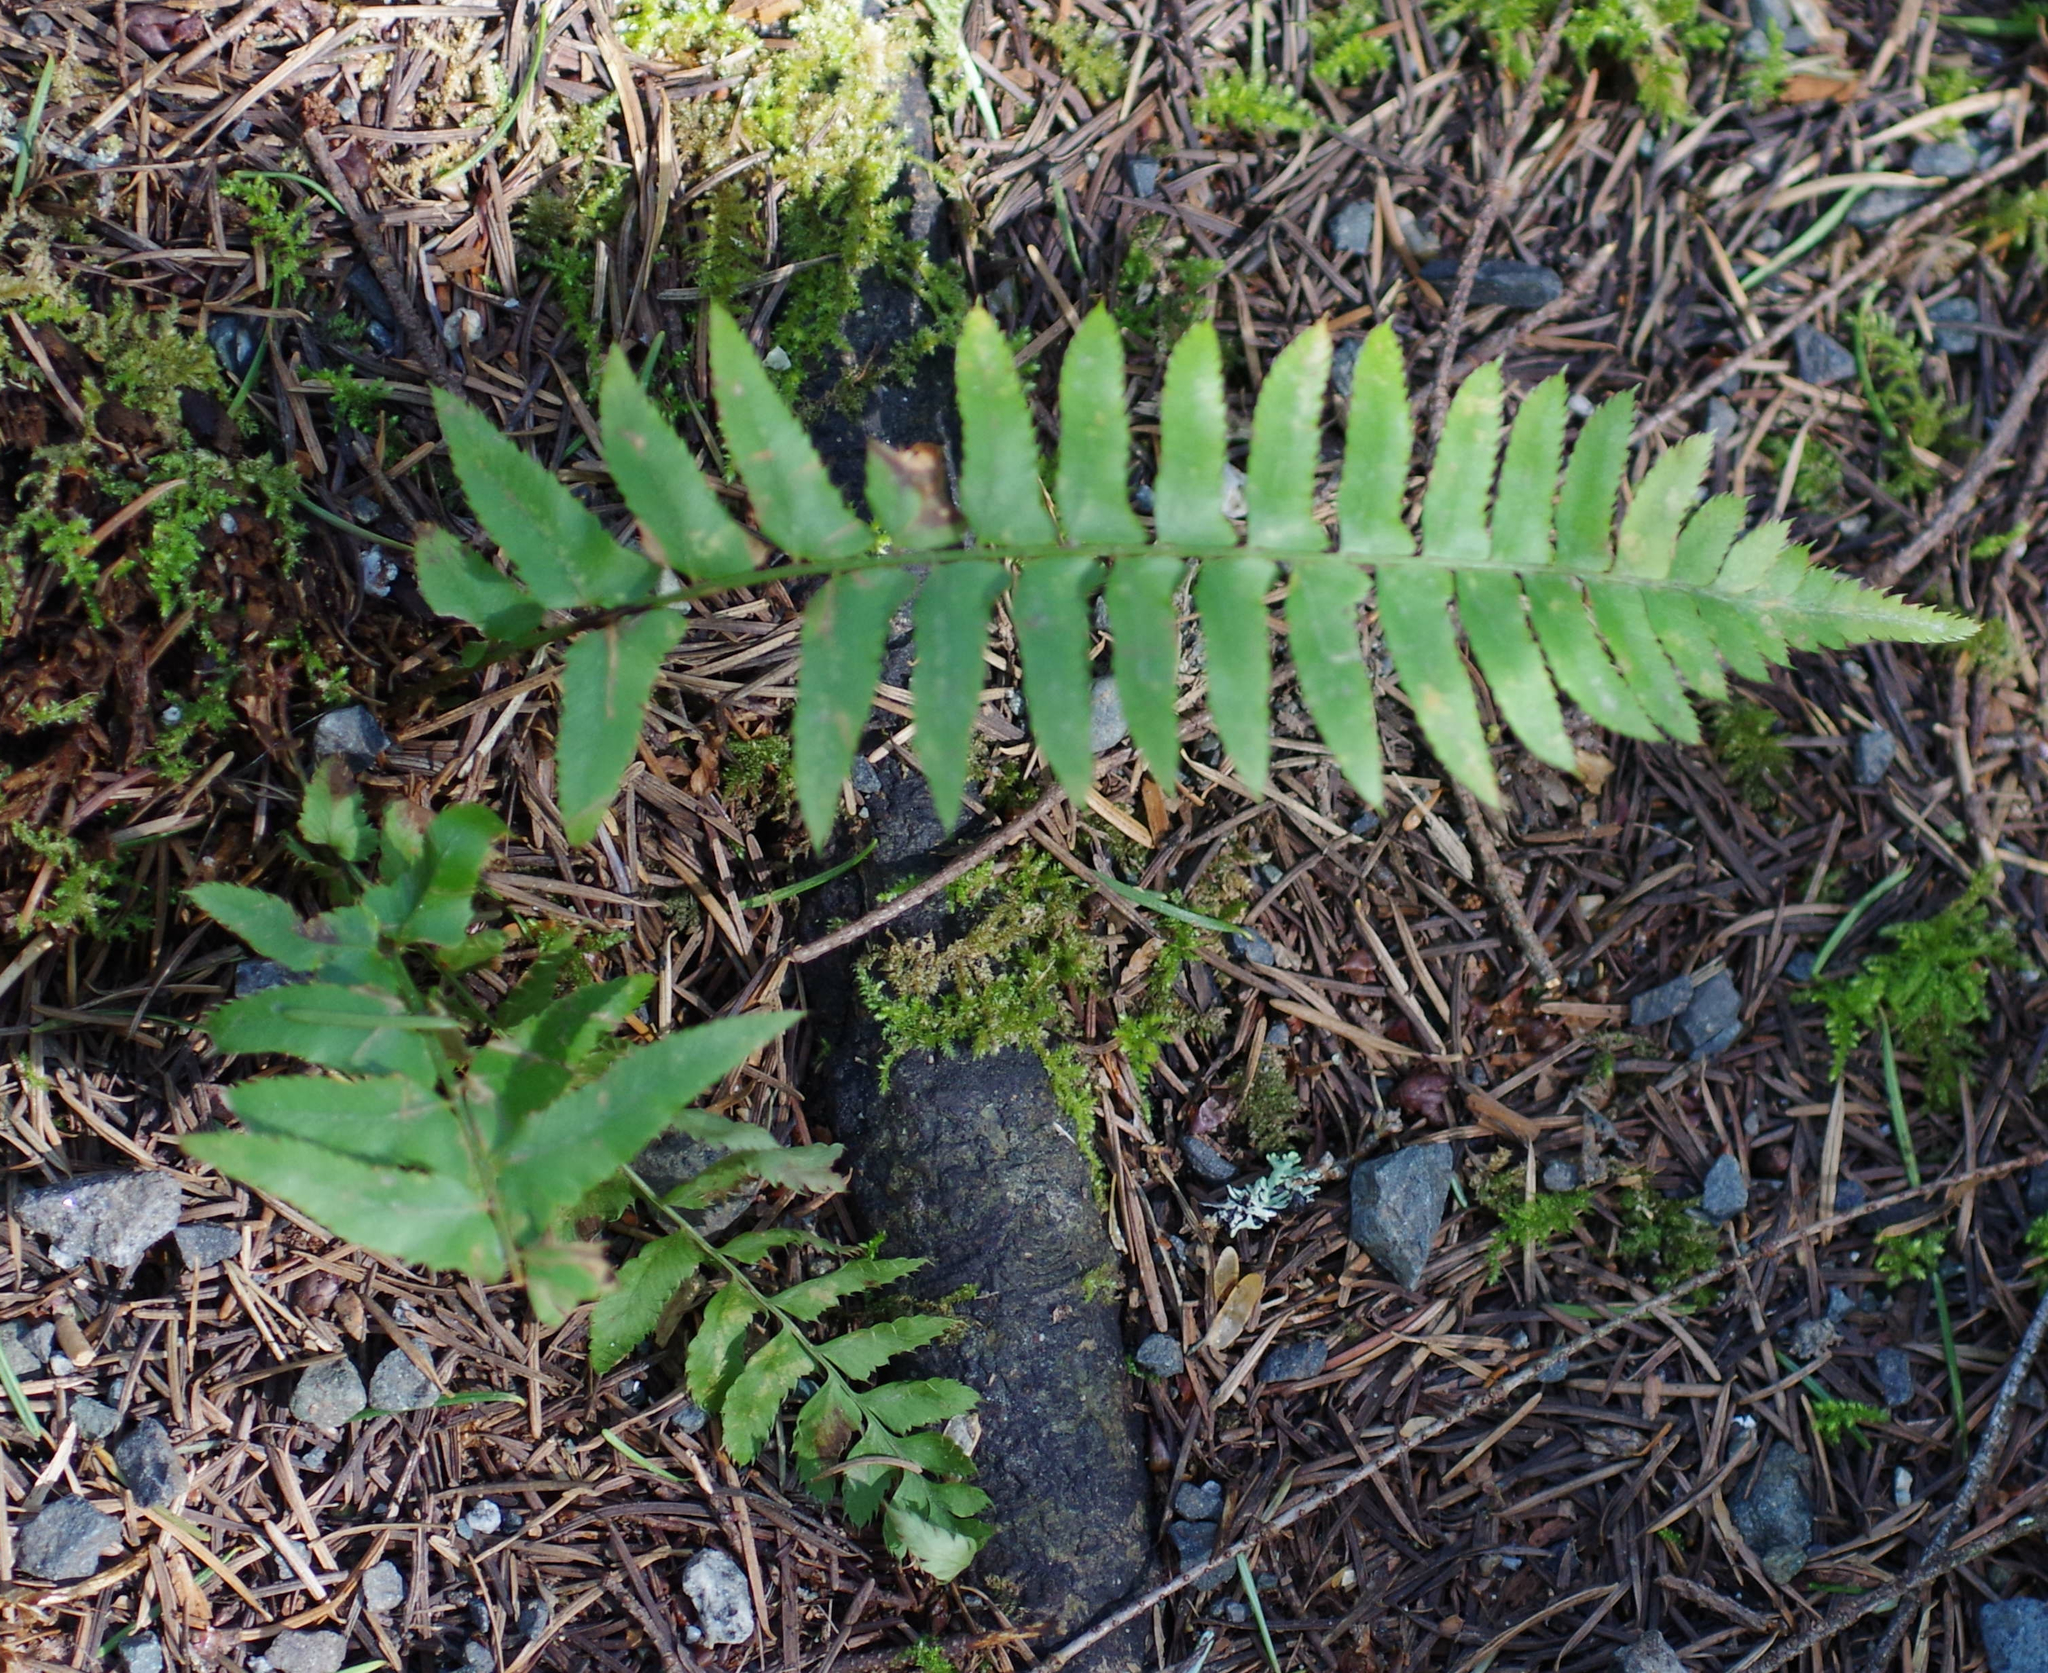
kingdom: Plantae
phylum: Tracheophyta
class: Polypodiopsida
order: Polypodiales
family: Dryopteridaceae
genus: Polystichum
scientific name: Polystichum munitum
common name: Western sword-fern
